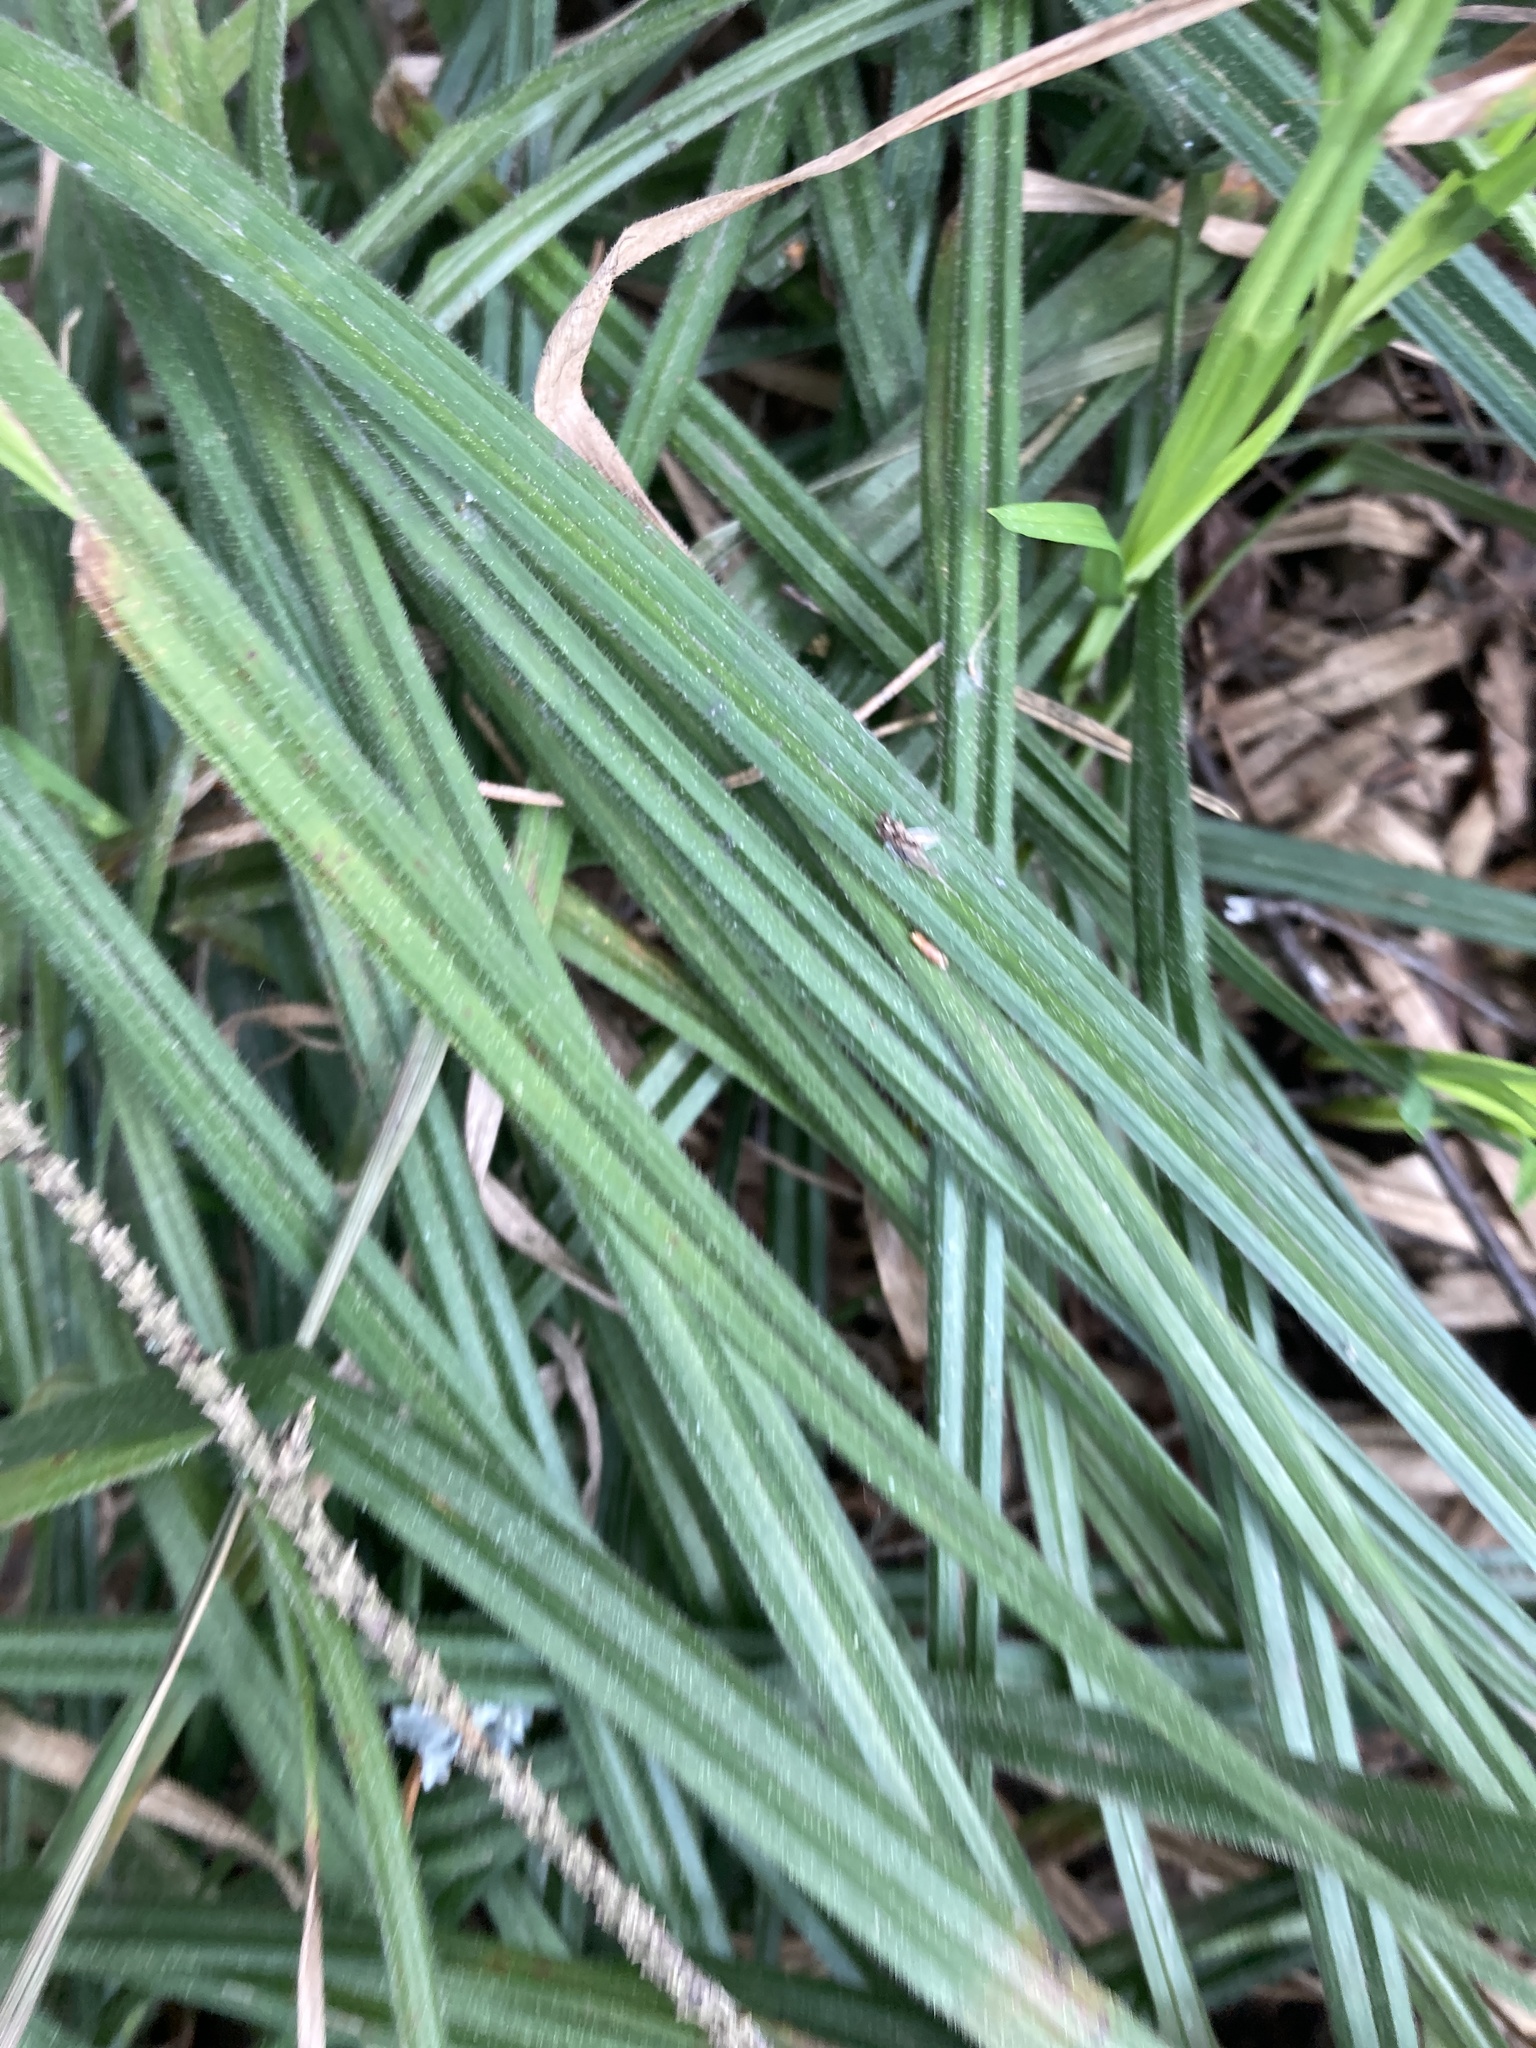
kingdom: Plantae
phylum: Tracheophyta
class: Liliopsida
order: Poales
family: Cyperaceae
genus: Carex
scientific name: Carex pilosa
